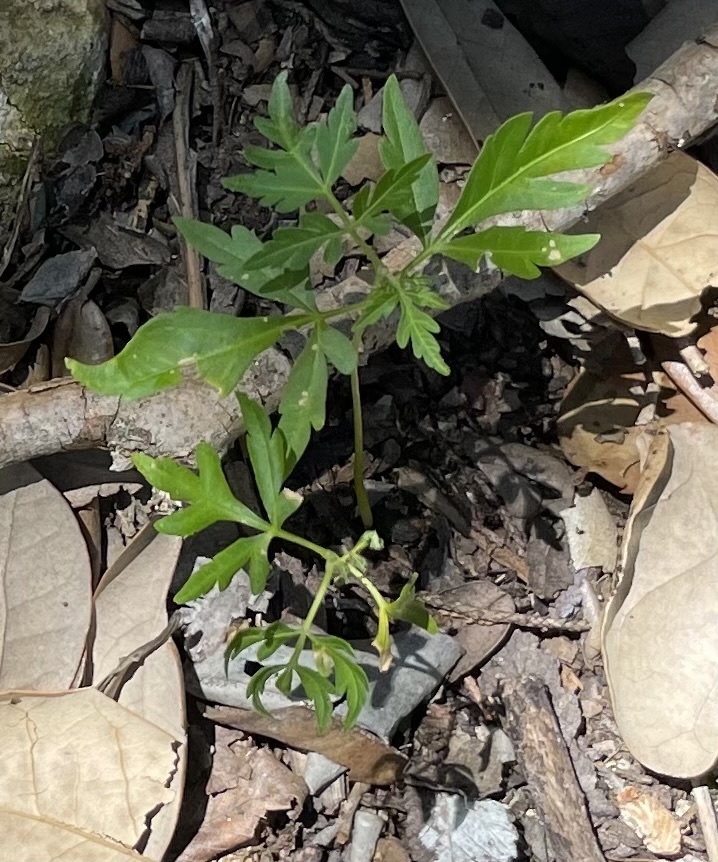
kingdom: Plantae
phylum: Tracheophyta
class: Magnoliopsida
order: Sapindales
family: Meliaceae
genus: Melia
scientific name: Melia azedarach
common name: Chinaberrytree
